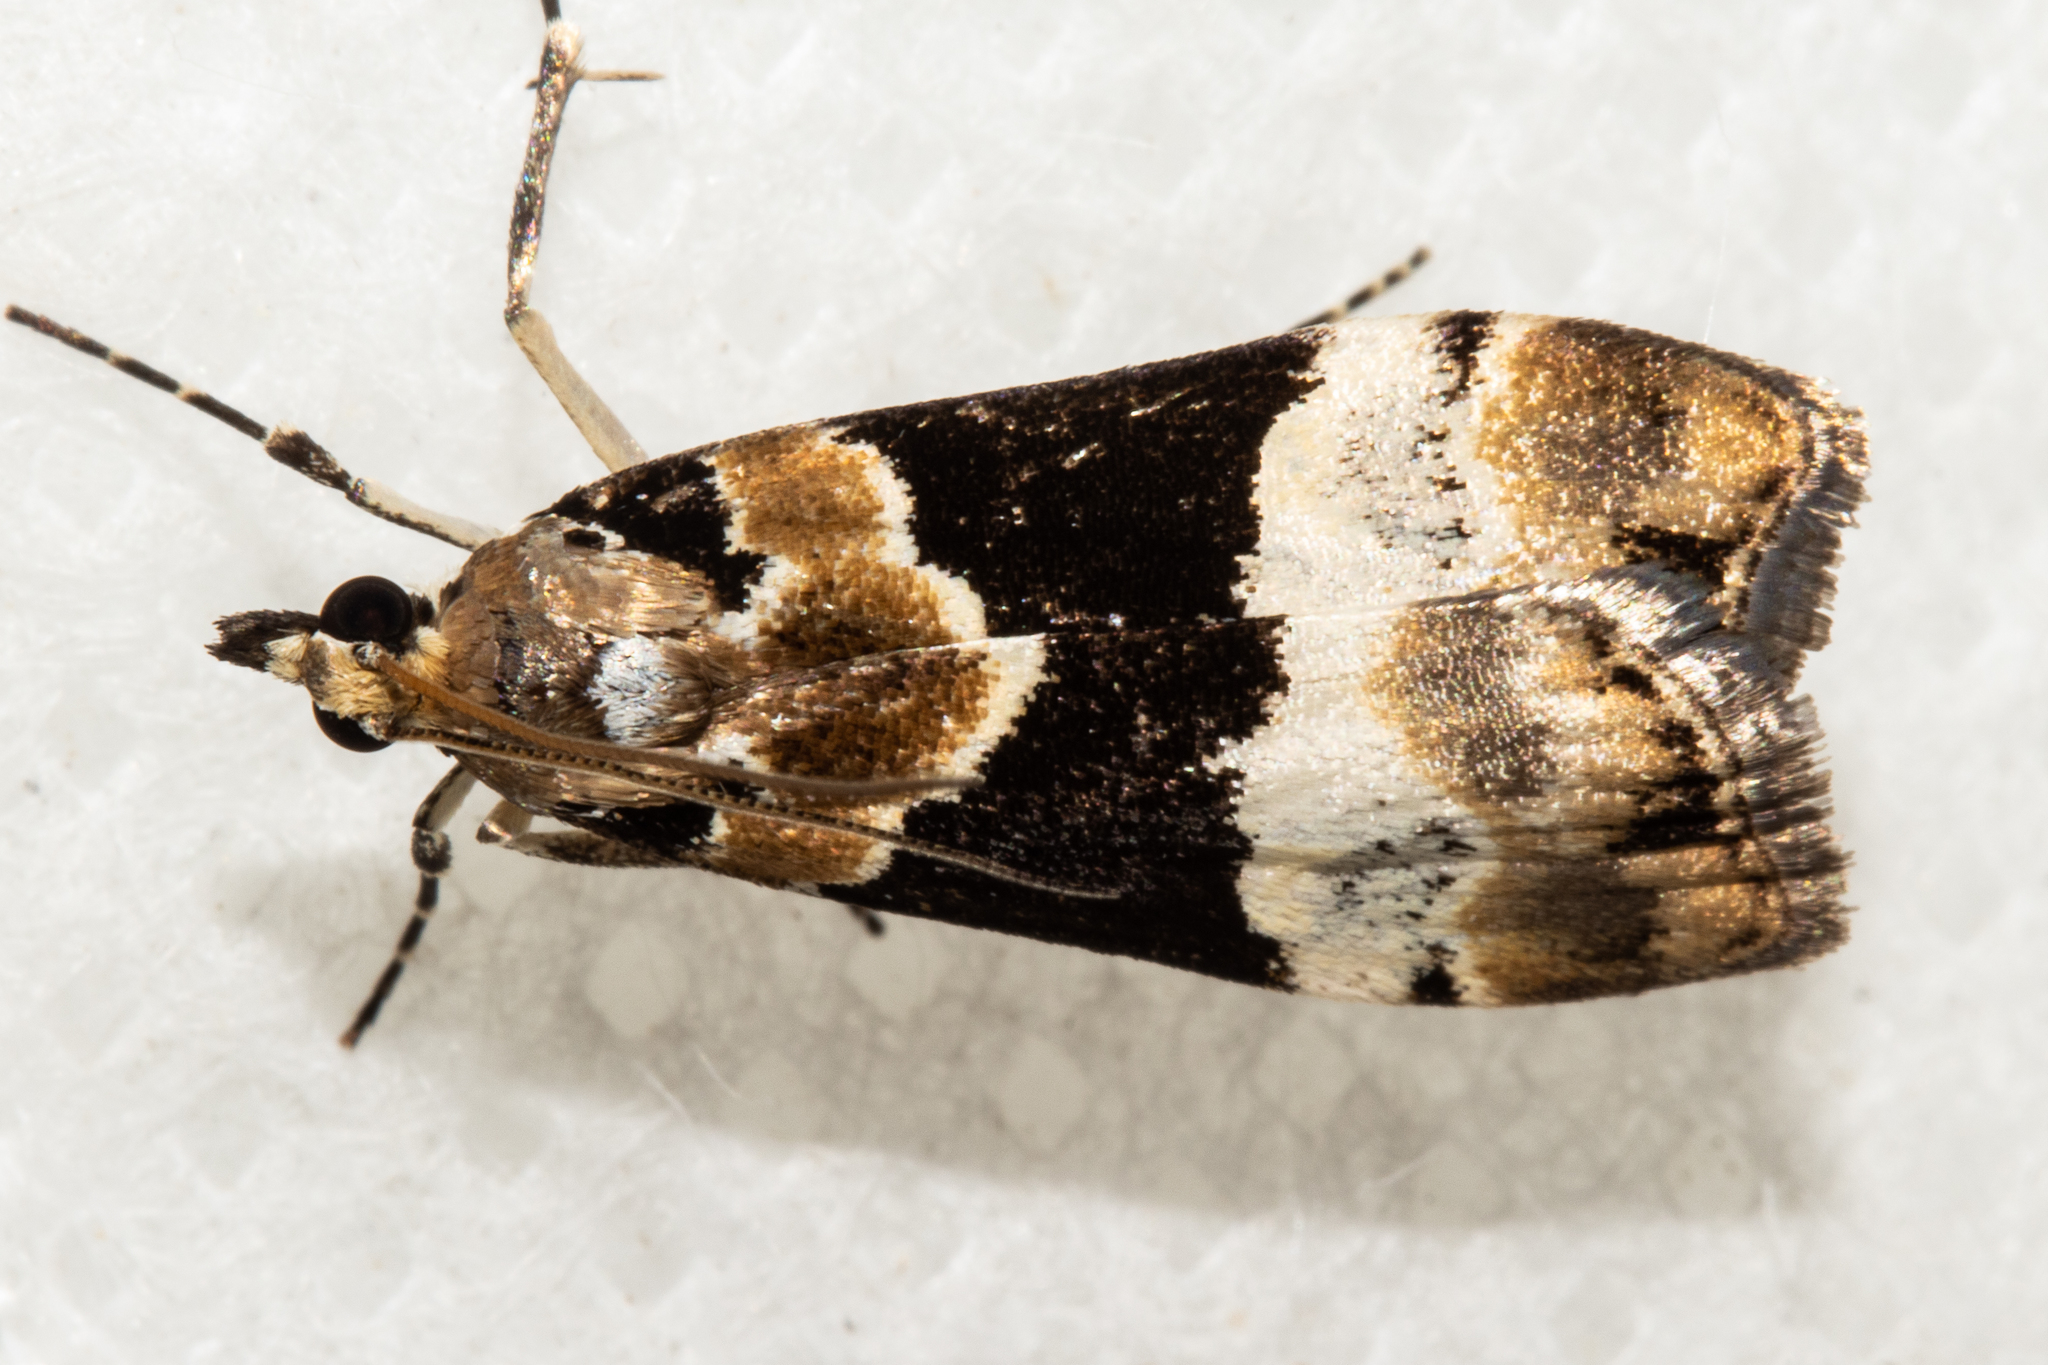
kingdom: Animalia
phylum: Arthropoda
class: Insecta
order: Lepidoptera
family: Crambidae
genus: Eudonia
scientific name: Eudonia aspidota
